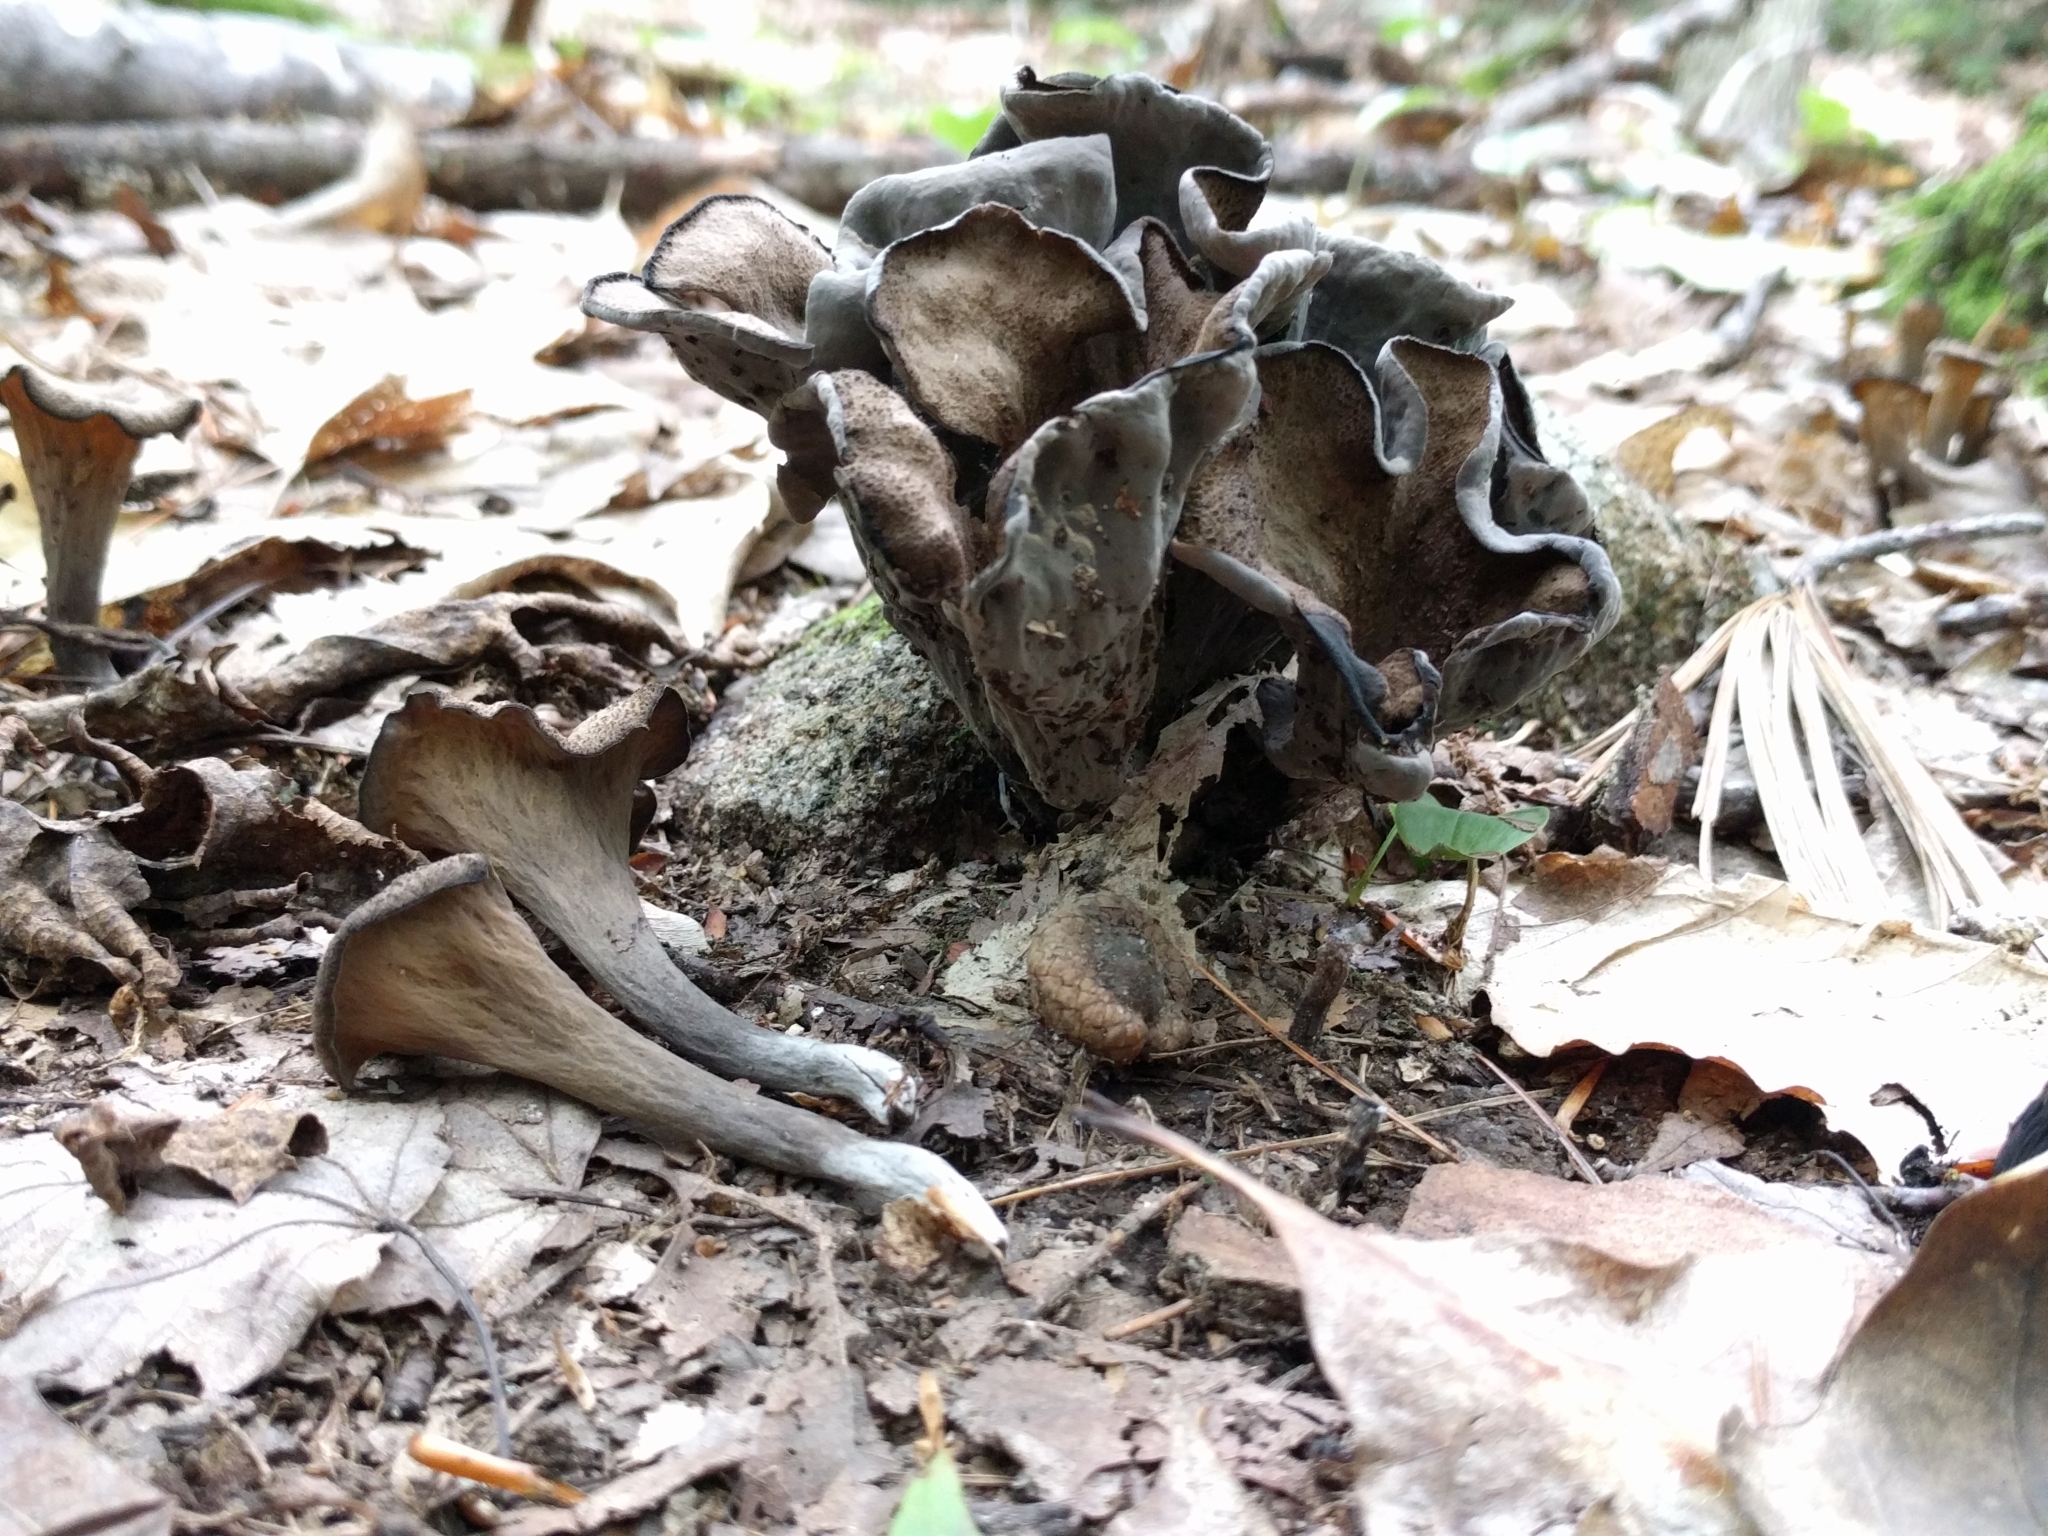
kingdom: Fungi
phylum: Basidiomycota
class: Agaricomycetes
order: Cantharellales
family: Hydnaceae
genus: Craterellus
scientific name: Craterellus cornucopioides
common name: Horn of plenty
